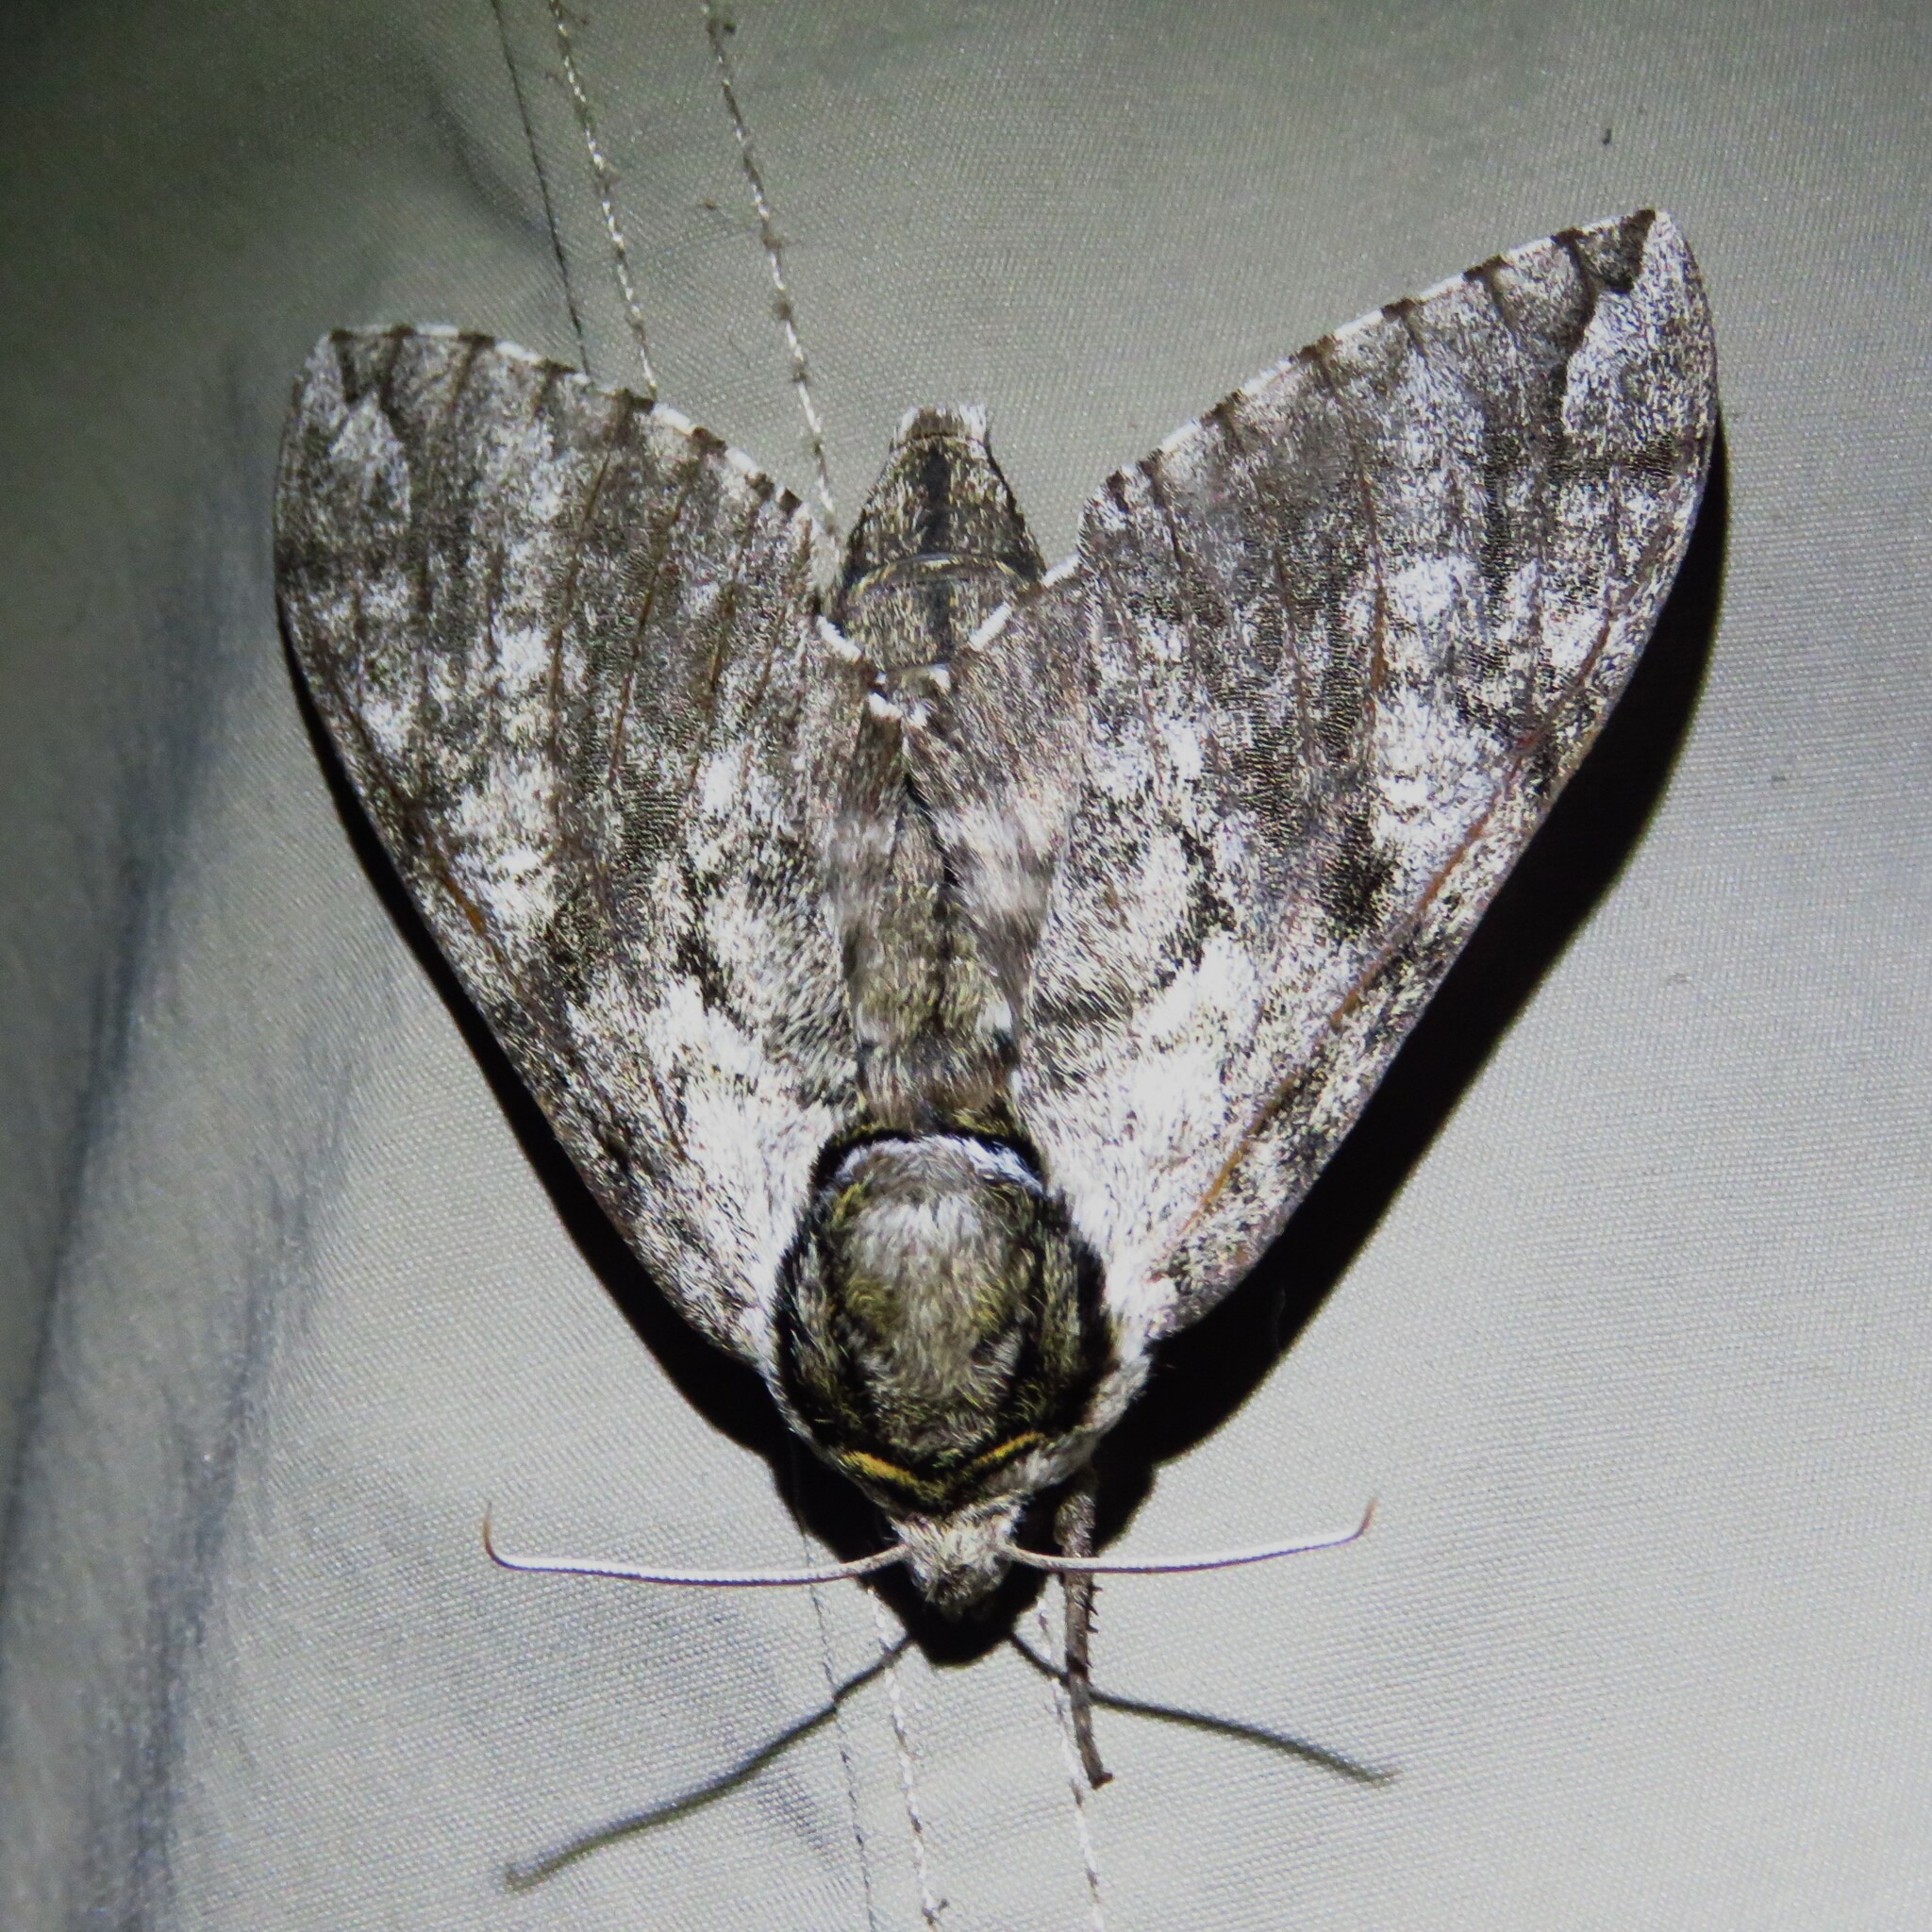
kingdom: Animalia
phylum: Arthropoda
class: Insecta
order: Lepidoptera
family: Sphingidae
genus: Ceratomia
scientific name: Ceratomia undulosa
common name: Waved sphinx
